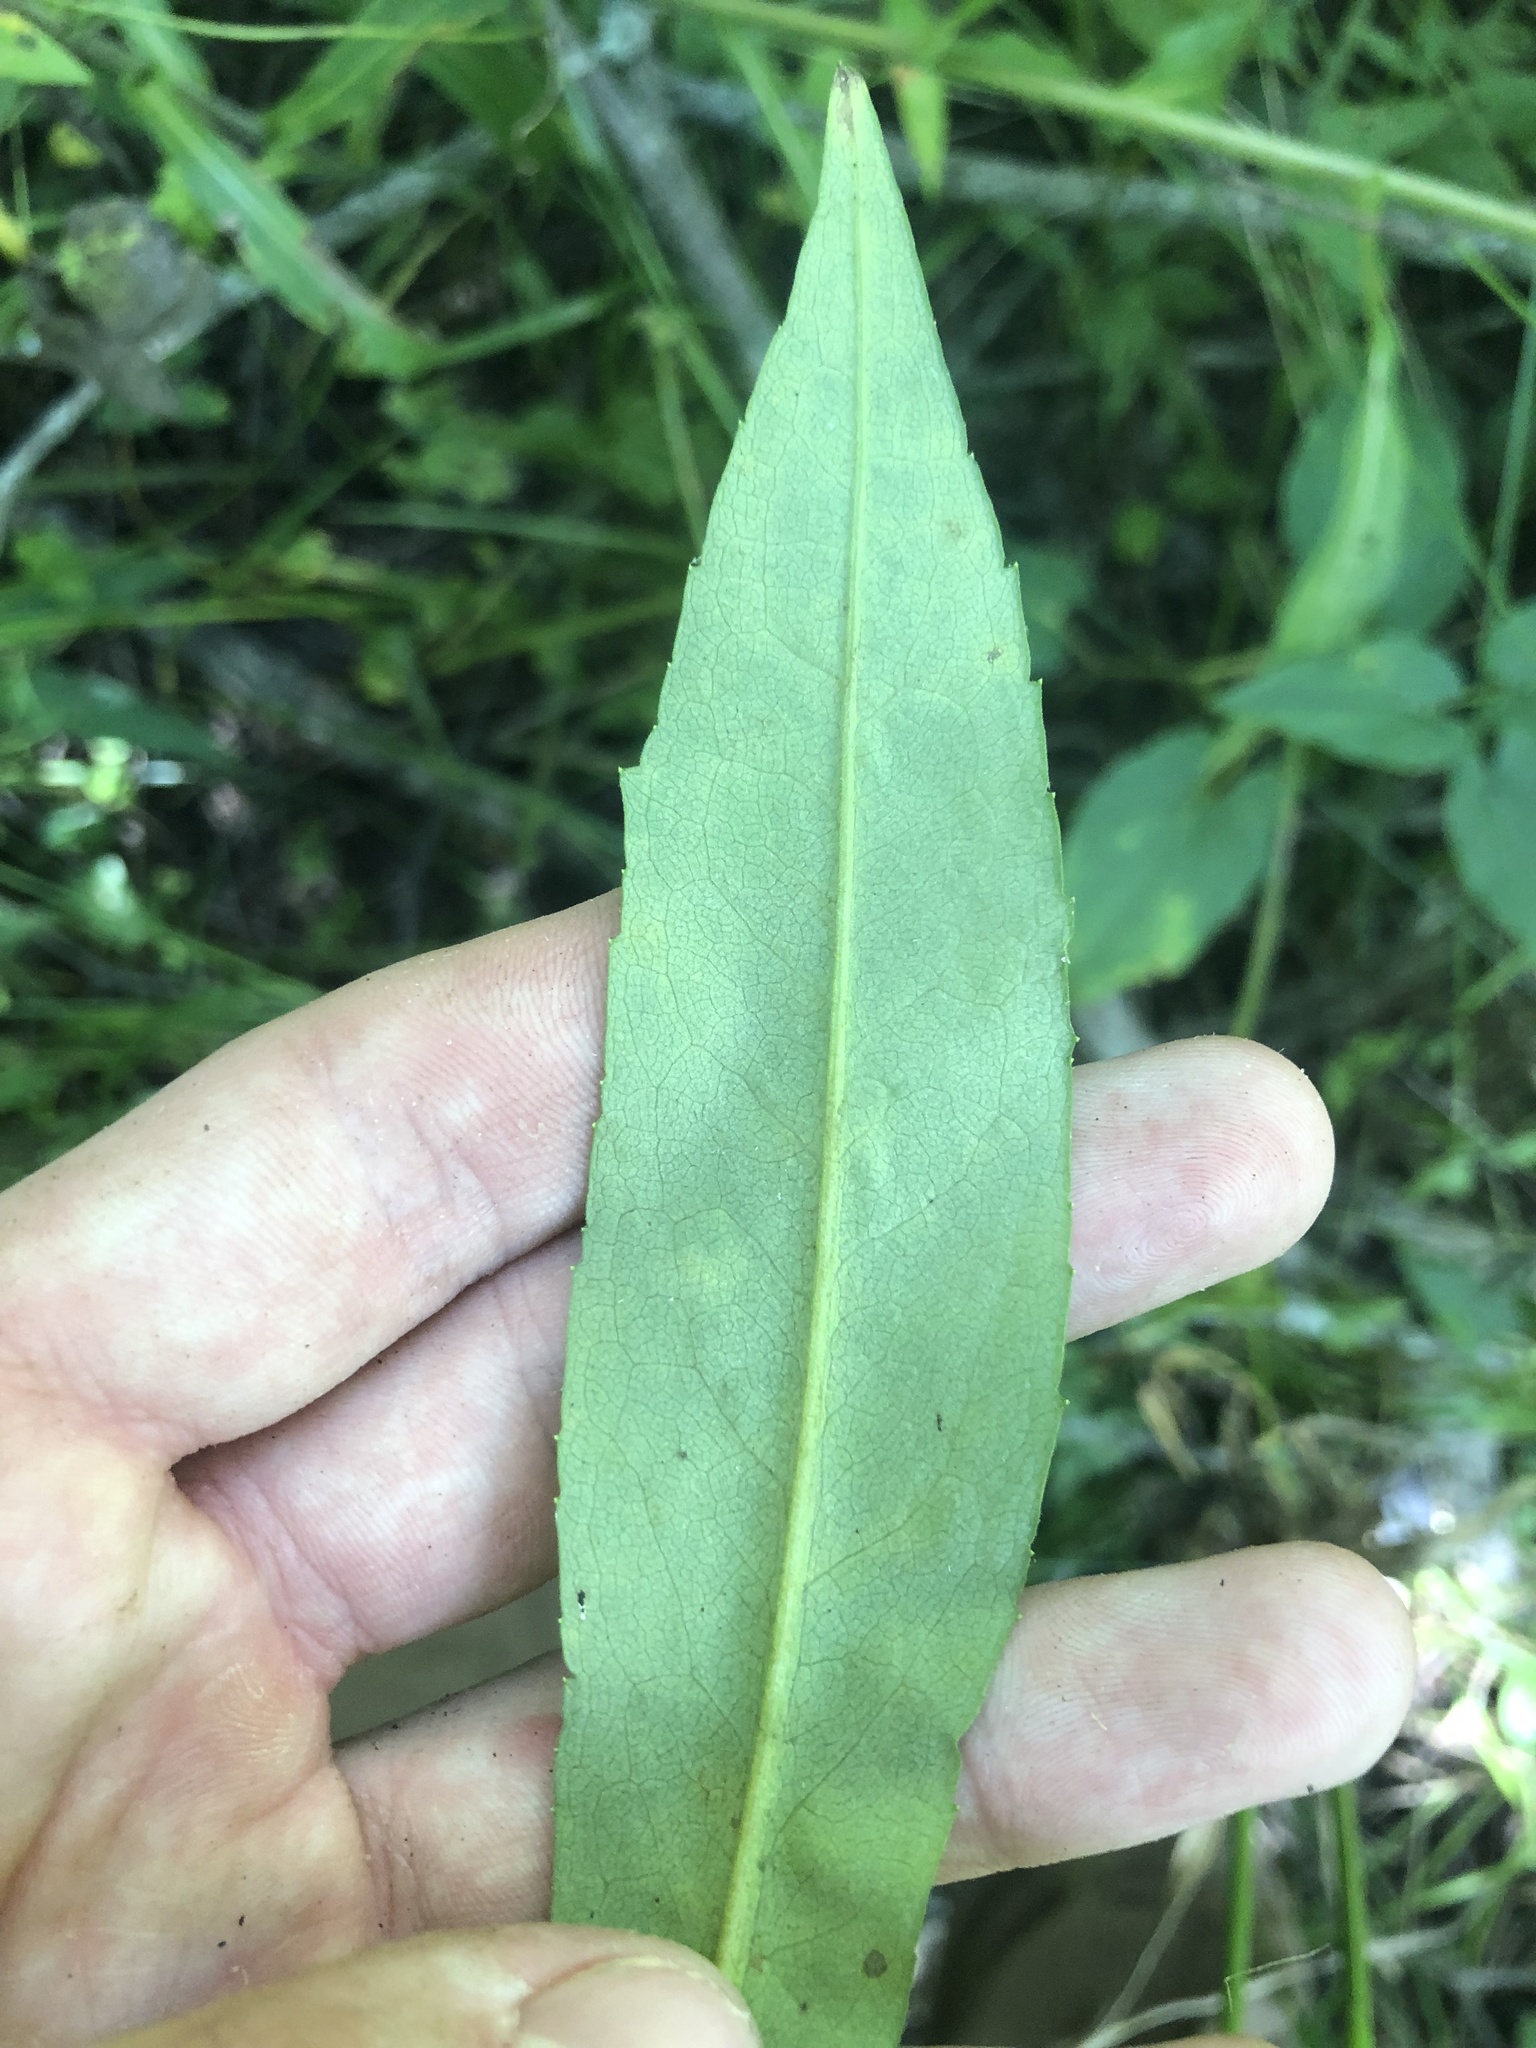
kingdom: Plantae
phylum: Tracheophyta
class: Magnoliopsida
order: Asterales
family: Asteraceae
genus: Symphyotrichum
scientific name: Symphyotrichum puniceum
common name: Bog aster
